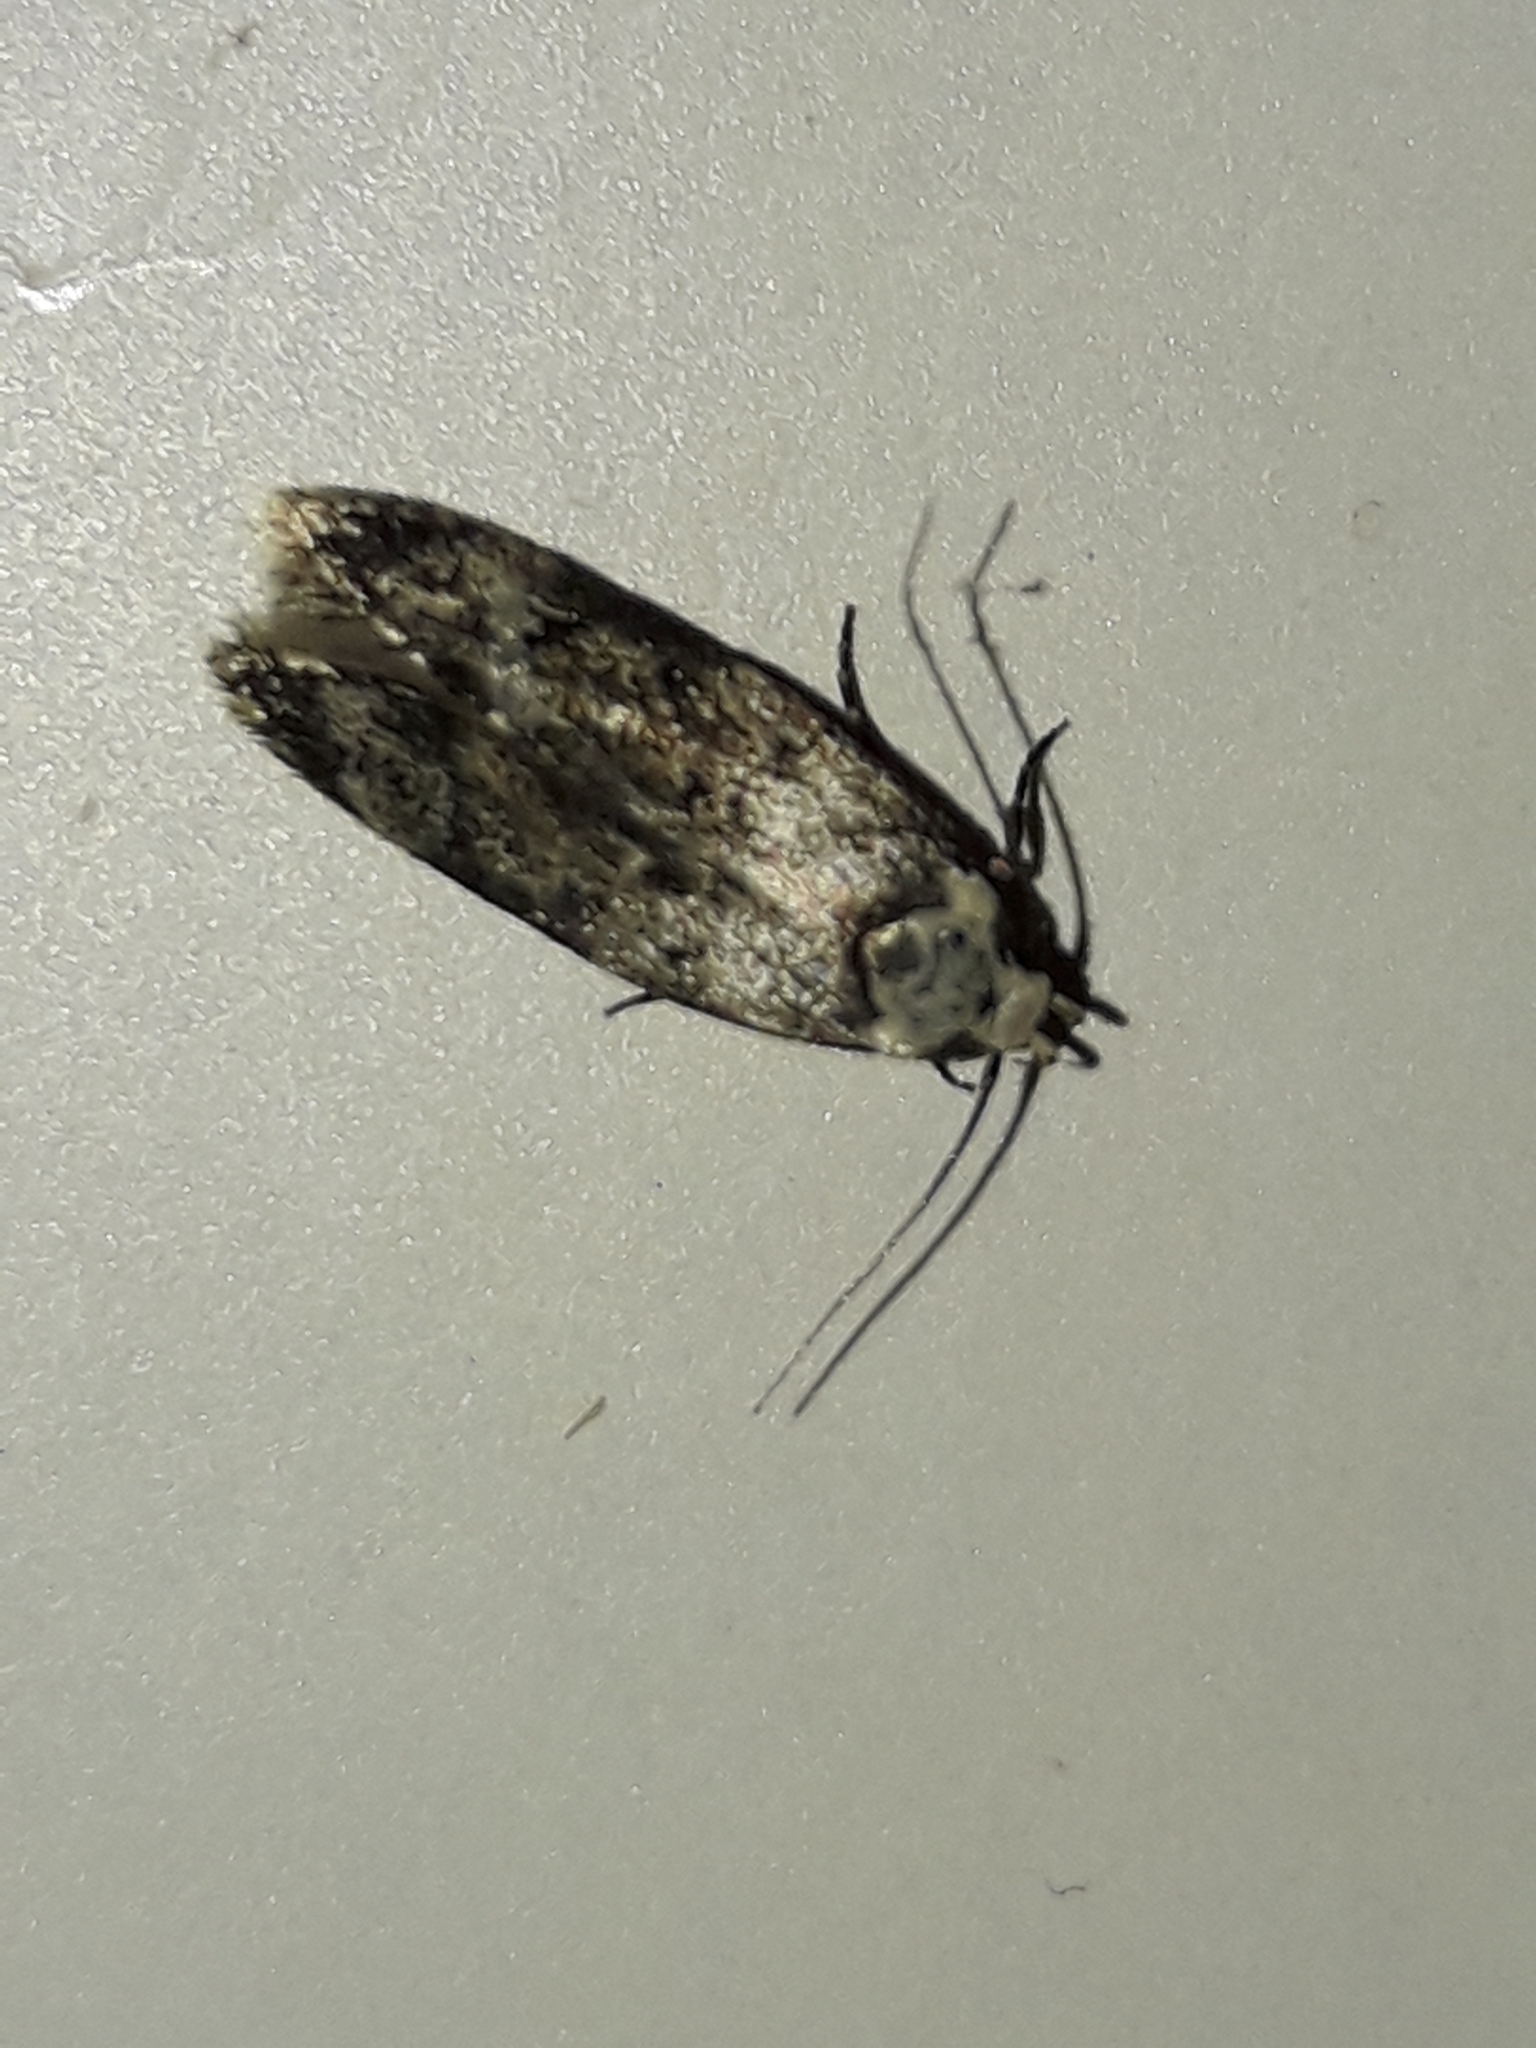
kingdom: Animalia
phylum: Arthropoda
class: Insecta
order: Lepidoptera
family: Oecophoridae
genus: Endrosis
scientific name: Endrosis sarcitrella
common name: White-shouldered house moth
